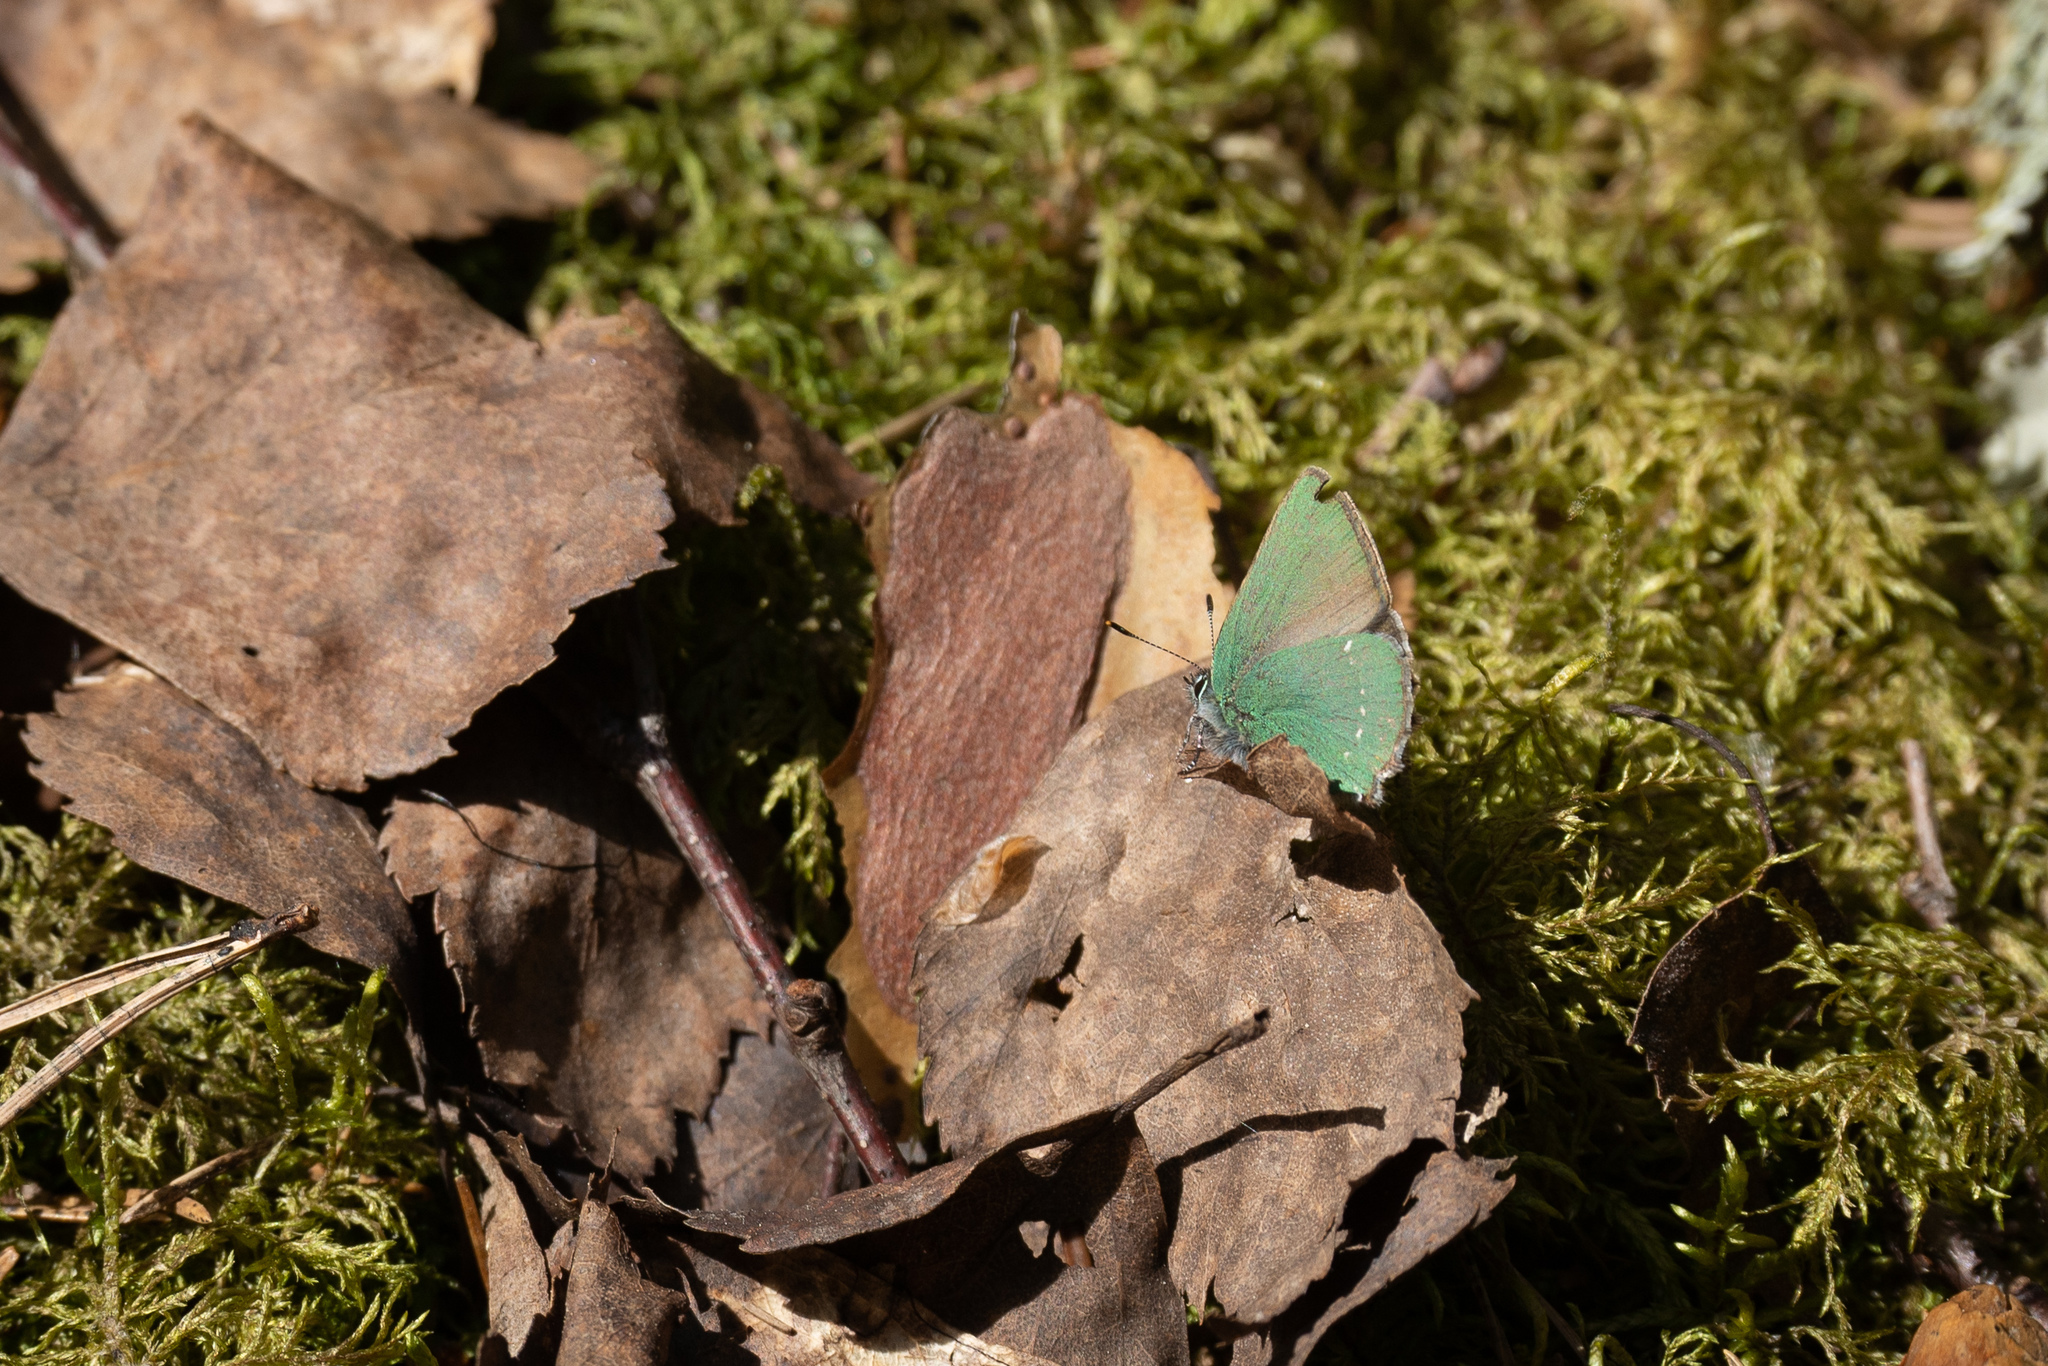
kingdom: Animalia
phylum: Arthropoda
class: Insecta
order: Lepidoptera
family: Lycaenidae
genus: Callophrys
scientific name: Callophrys rubi
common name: Green hairstreak
